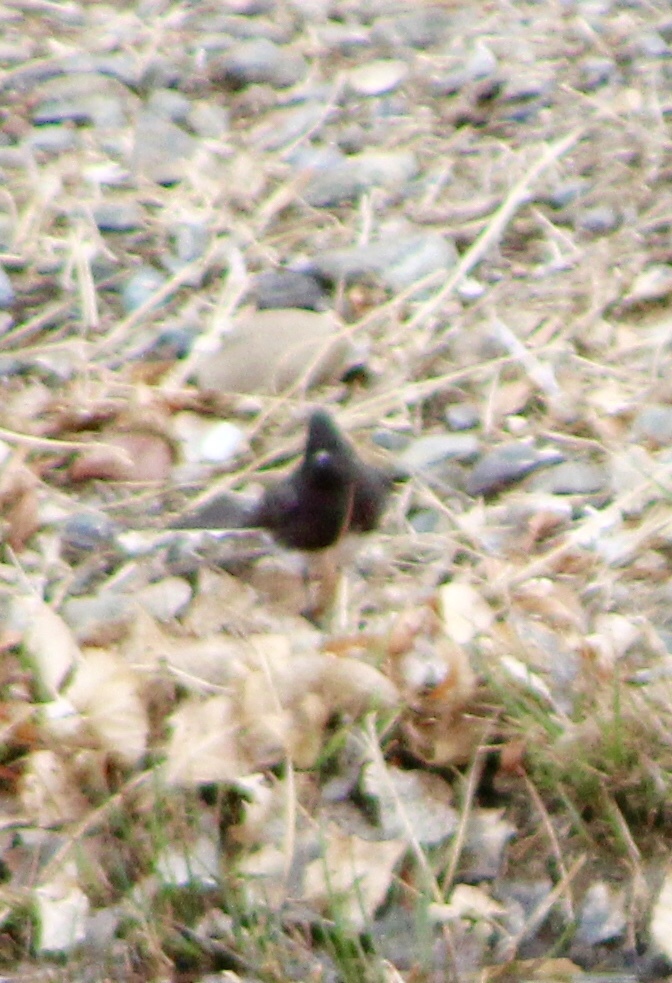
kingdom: Animalia
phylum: Chordata
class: Aves
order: Passeriformes
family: Tyrannidae
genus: Sayornis
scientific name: Sayornis nigricans
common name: Black phoebe
